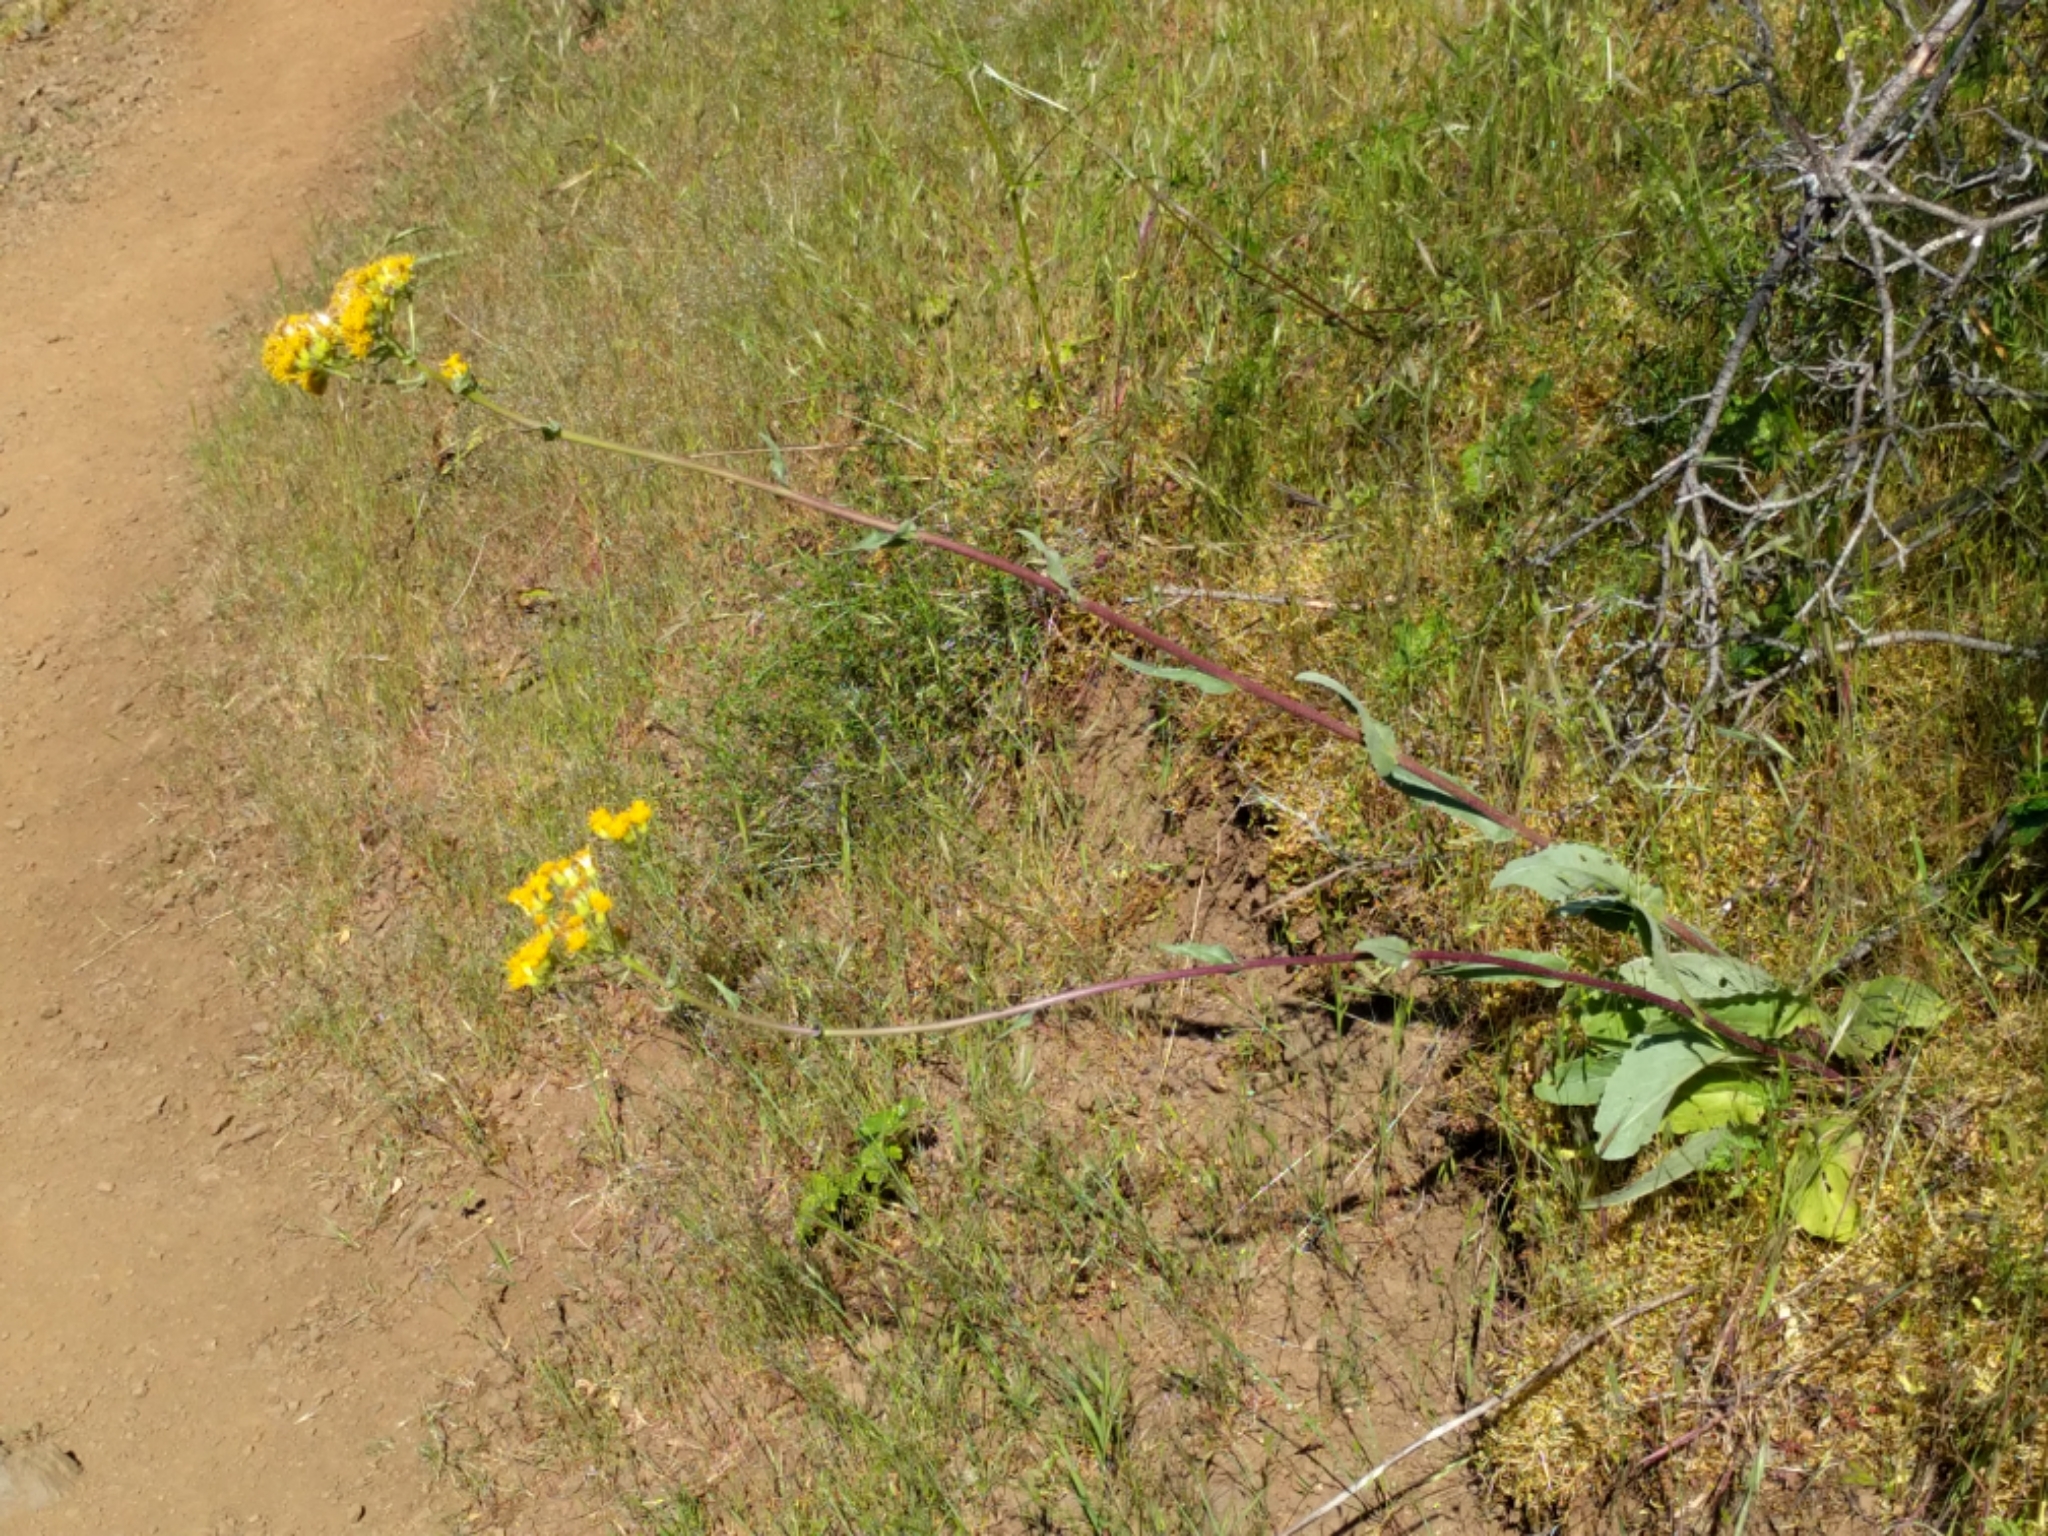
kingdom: Plantae
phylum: Tracheophyta
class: Magnoliopsida
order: Asterales
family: Asteraceae
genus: Senecio
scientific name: Senecio aronicoides
